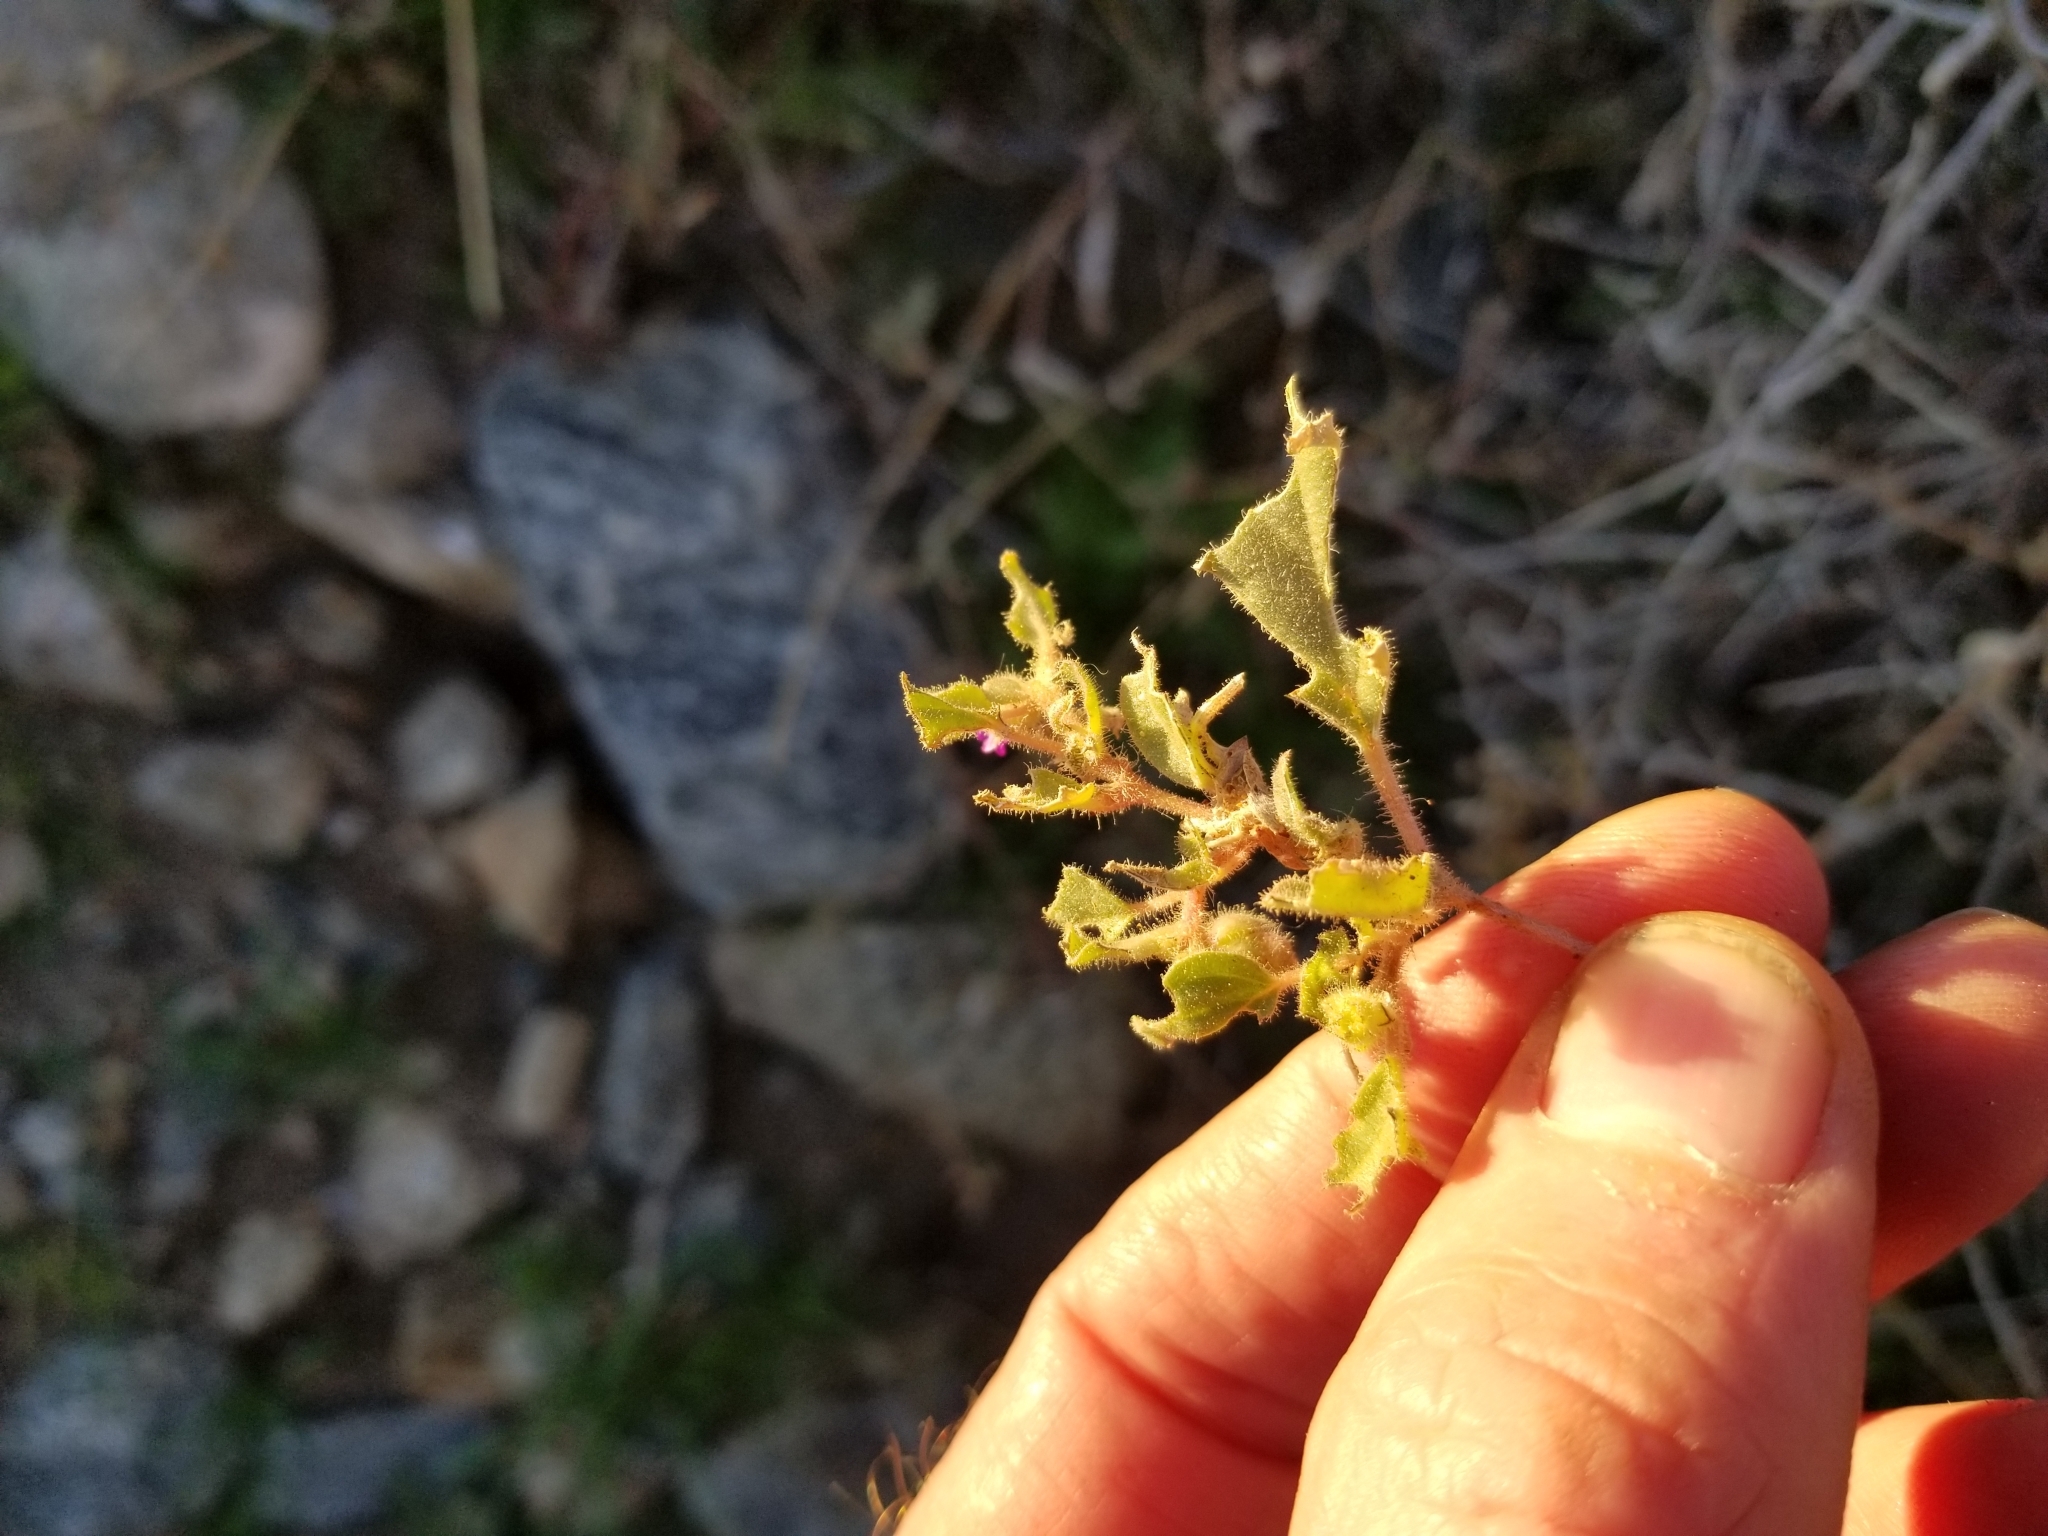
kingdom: Plantae
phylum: Tracheophyta
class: Magnoliopsida
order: Caryophyllales
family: Nyctaginaceae
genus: Allionia
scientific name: Allionia incarnata
